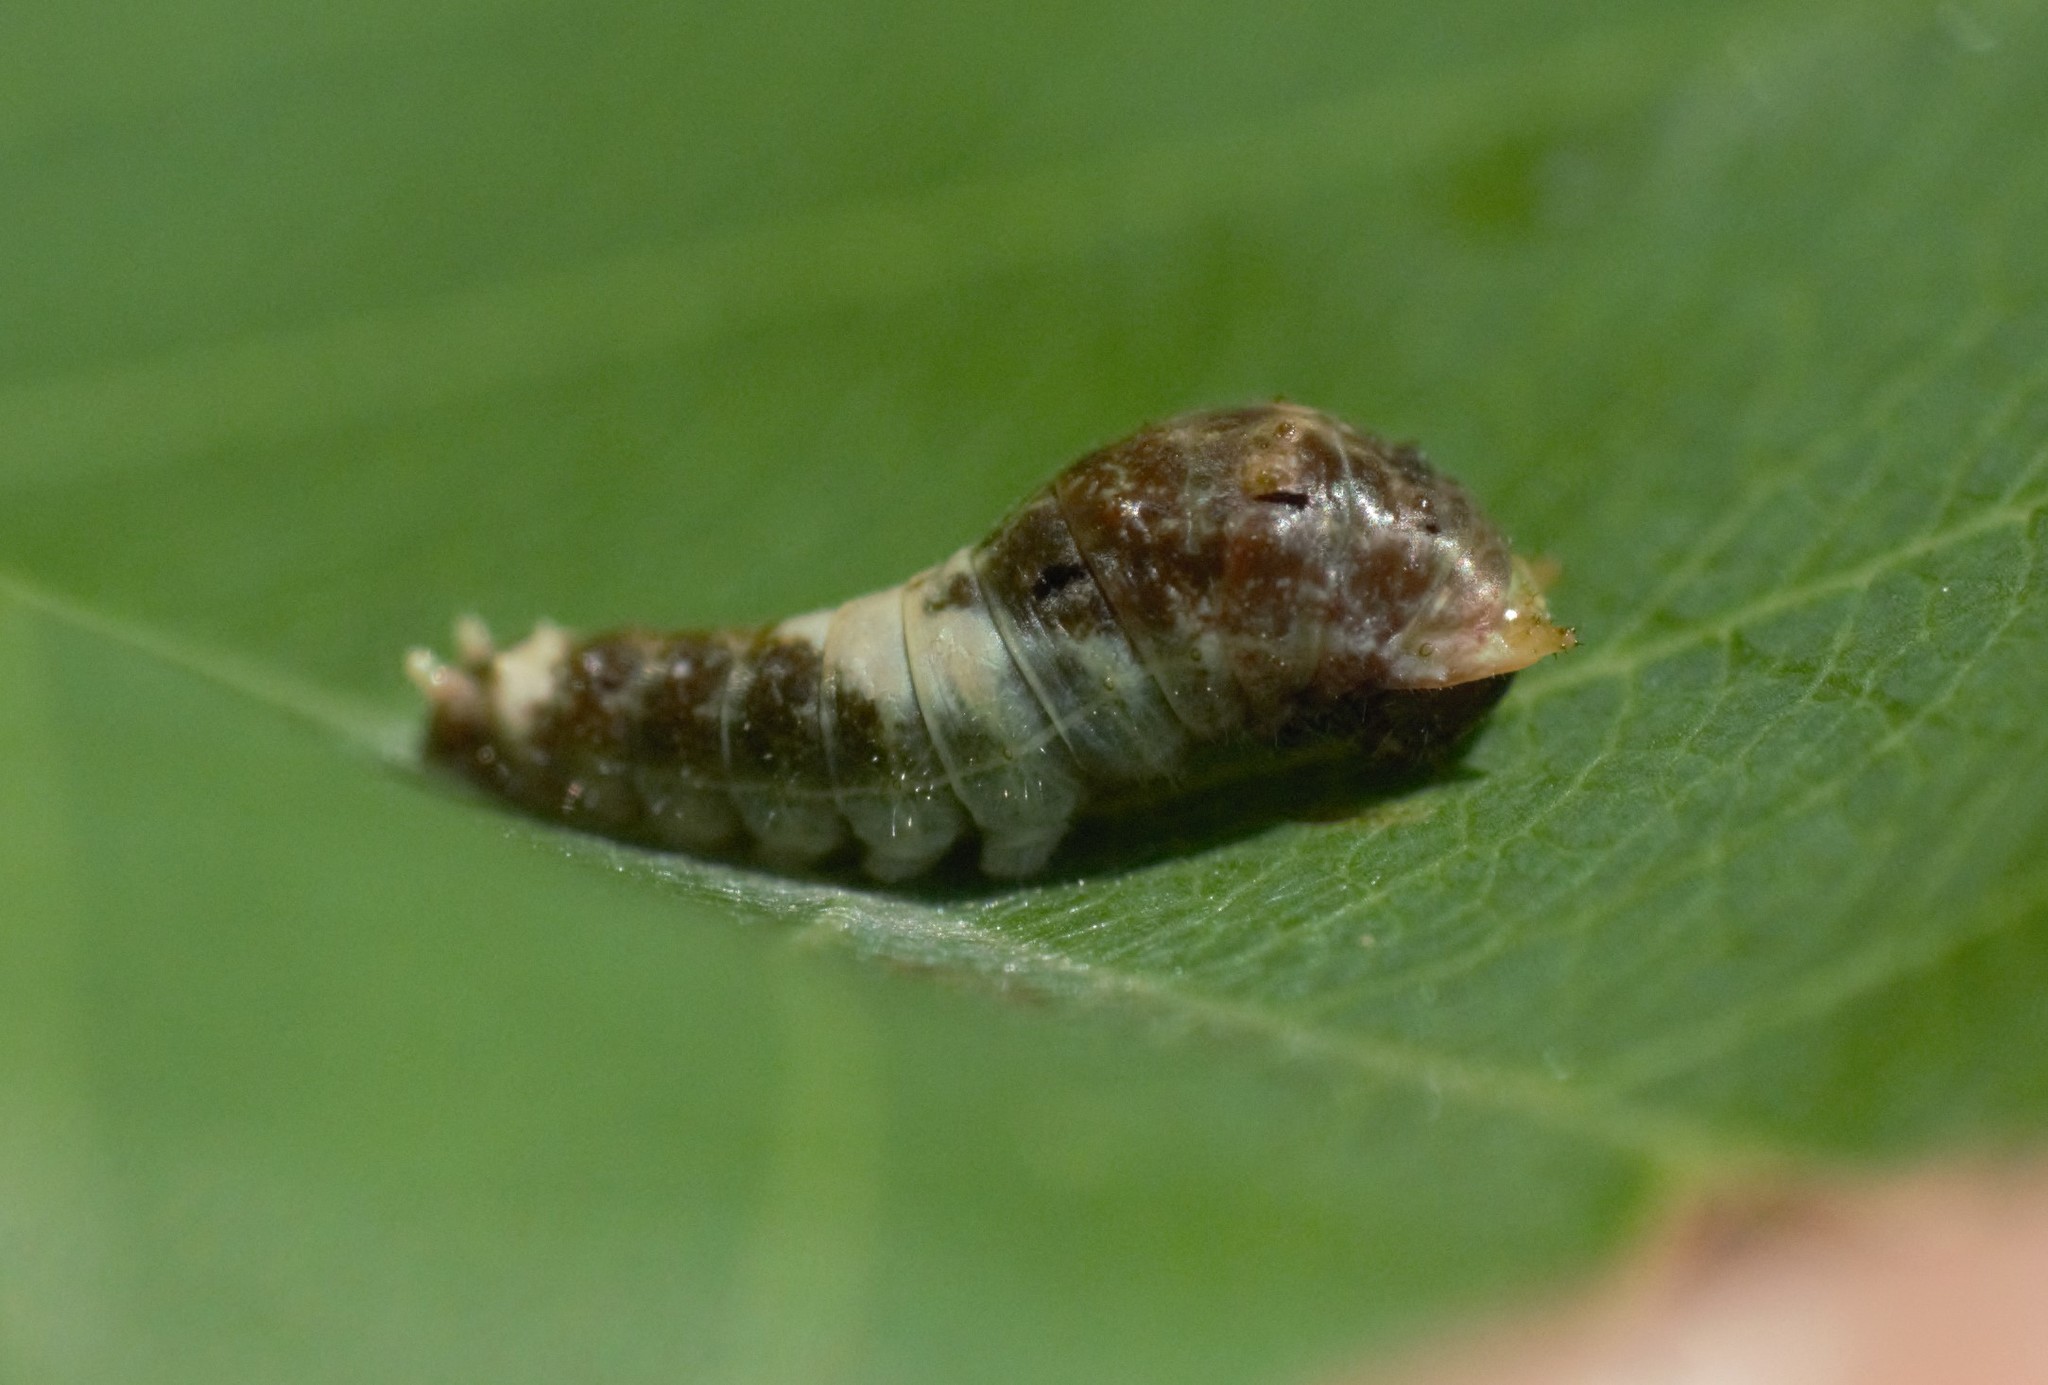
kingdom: Animalia
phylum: Arthropoda
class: Insecta
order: Lepidoptera
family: Papilionidae
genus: Papilio
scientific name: Papilio canadensis
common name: Canadian tiger swallowtail
